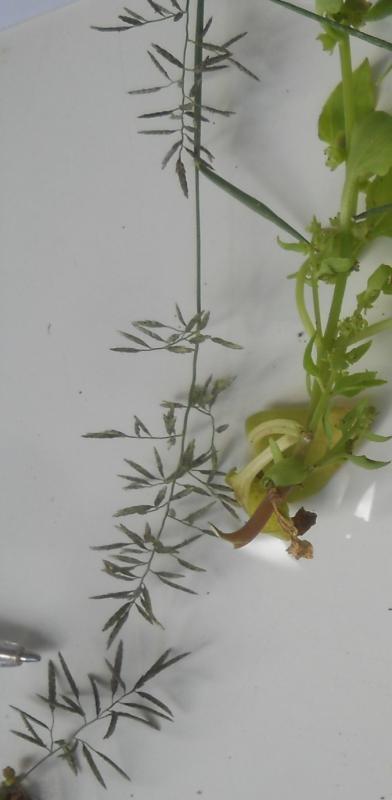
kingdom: Plantae
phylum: Tracheophyta
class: Liliopsida
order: Poales
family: Poaceae
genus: Eragrostis
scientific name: Eragrostis barrelieri
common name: Mediterranean lovegrass
